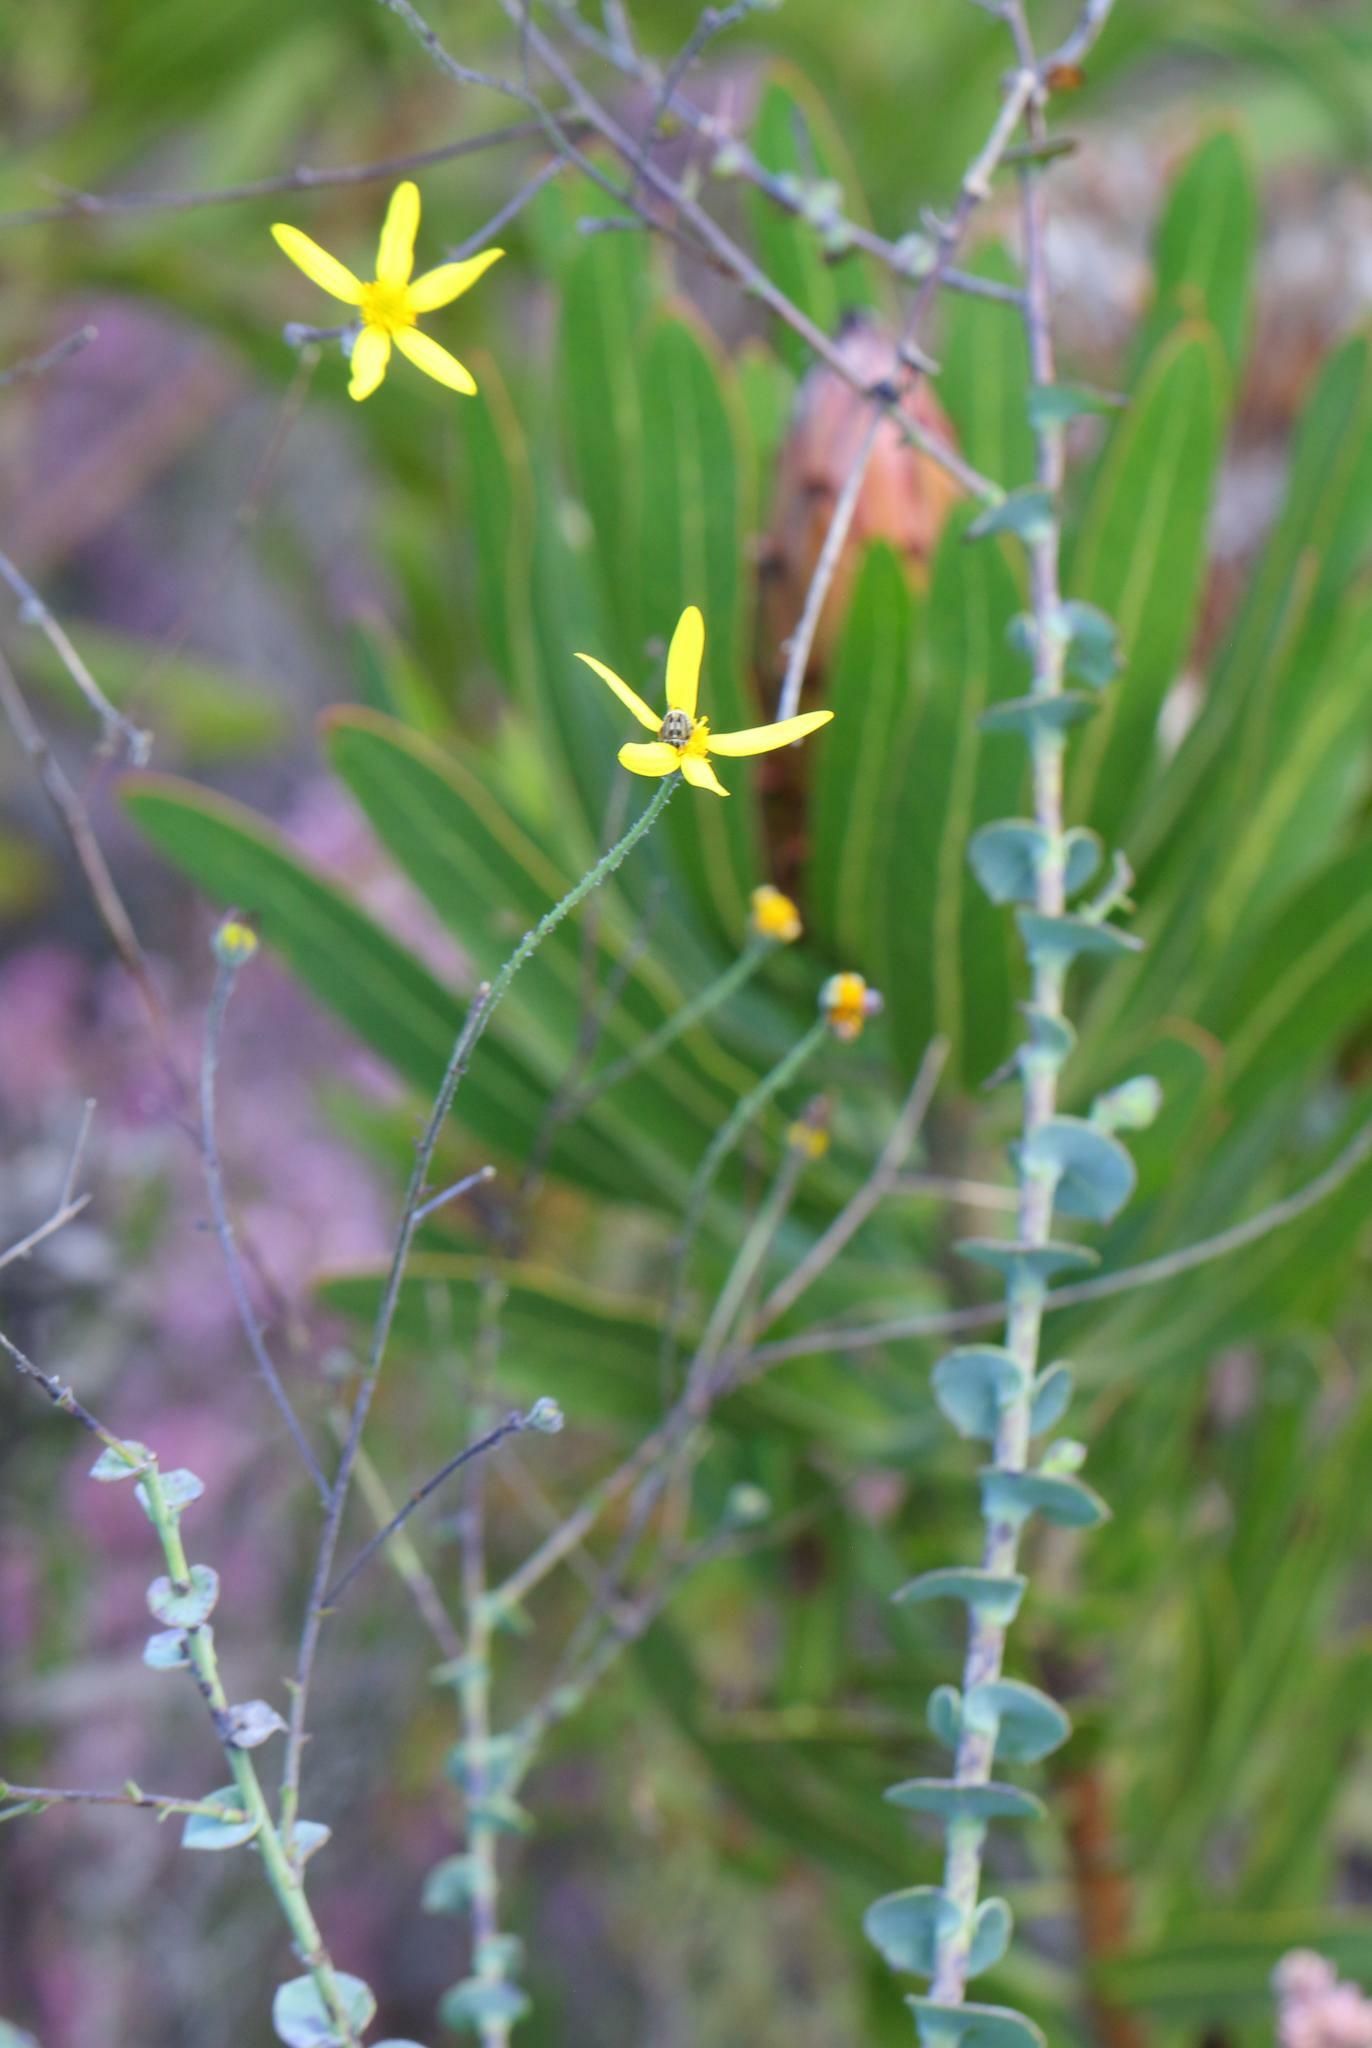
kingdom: Plantae
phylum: Tracheophyta
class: Magnoliopsida
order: Asterales
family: Asteraceae
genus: Osteospermum
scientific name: Osteospermum imbricatum
